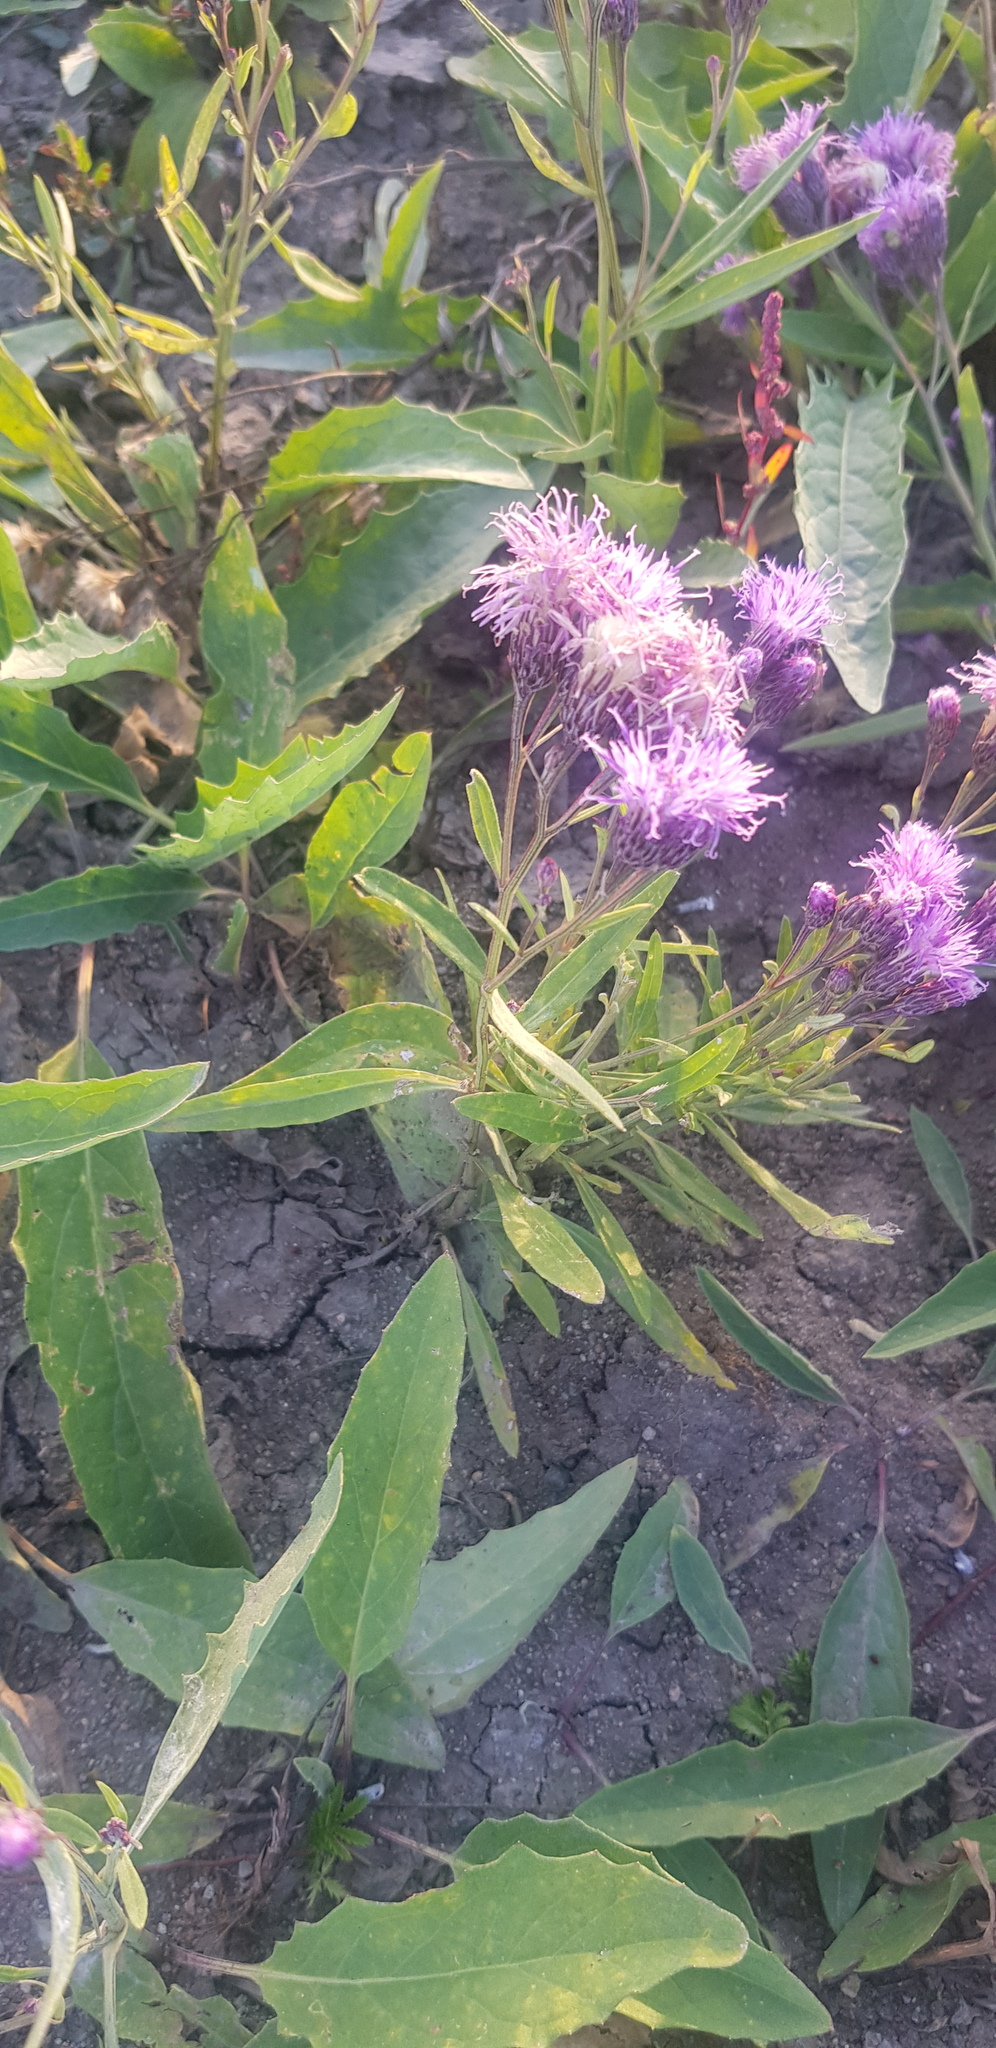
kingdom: Plantae
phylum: Tracheophyta
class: Magnoliopsida
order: Asterales
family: Asteraceae
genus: Saussurea
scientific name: Saussurea amara
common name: Alberta sawwort
